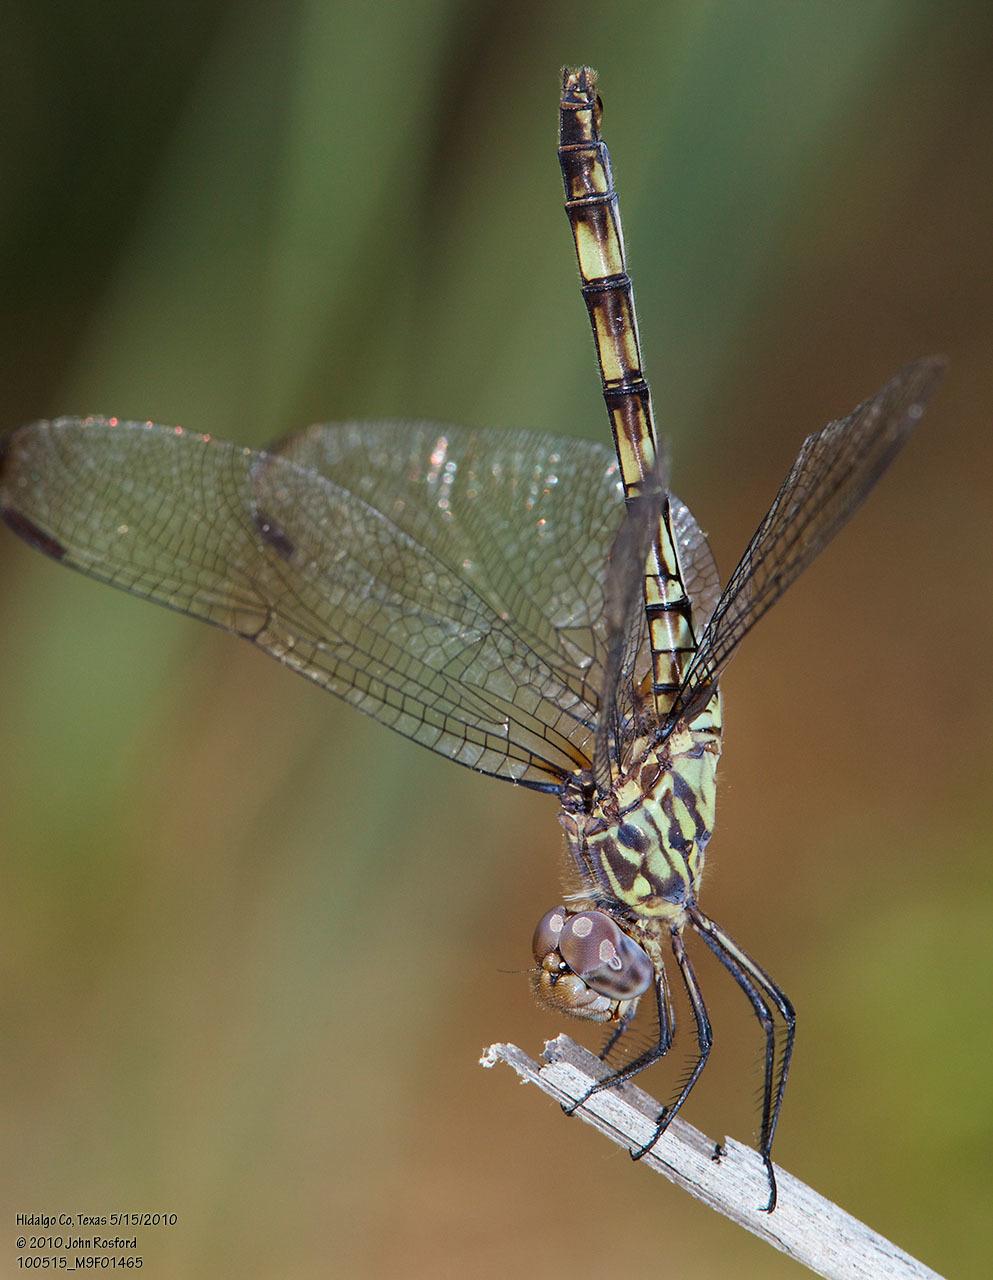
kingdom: Animalia
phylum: Arthropoda
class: Insecta
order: Odonata
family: Libellulidae
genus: Dythemis
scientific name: Dythemis nigrescens
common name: Black setwing
